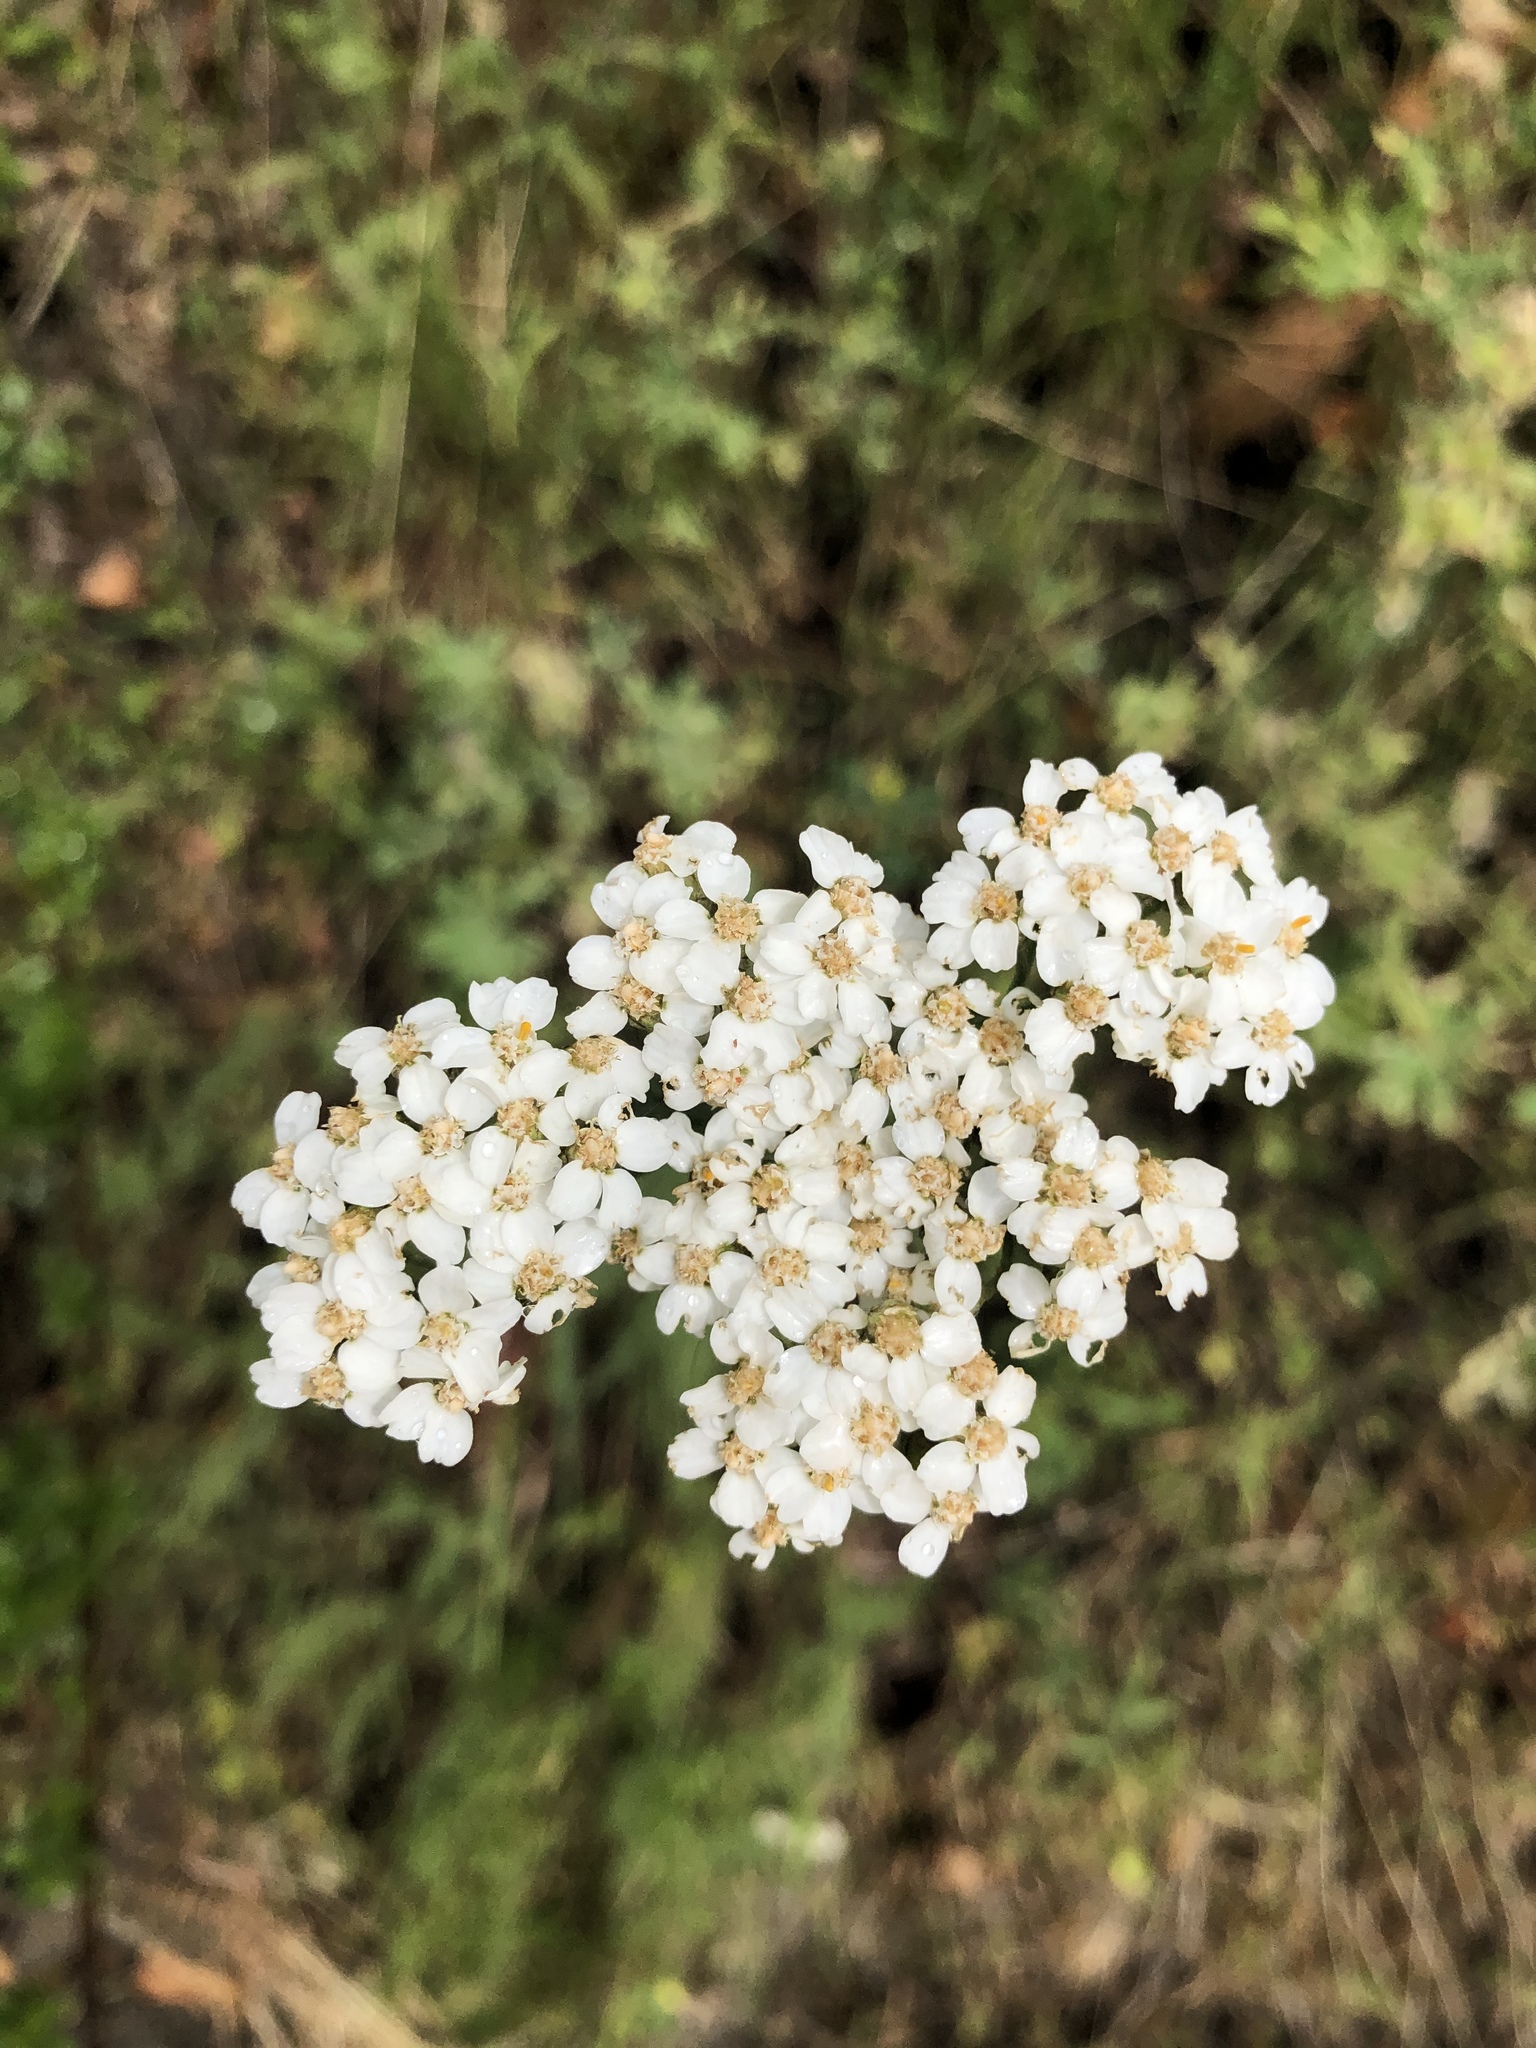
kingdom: Plantae
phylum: Tracheophyta
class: Magnoliopsida
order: Asterales
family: Asteraceae
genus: Achillea
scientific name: Achillea millefolium
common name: Yarrow
